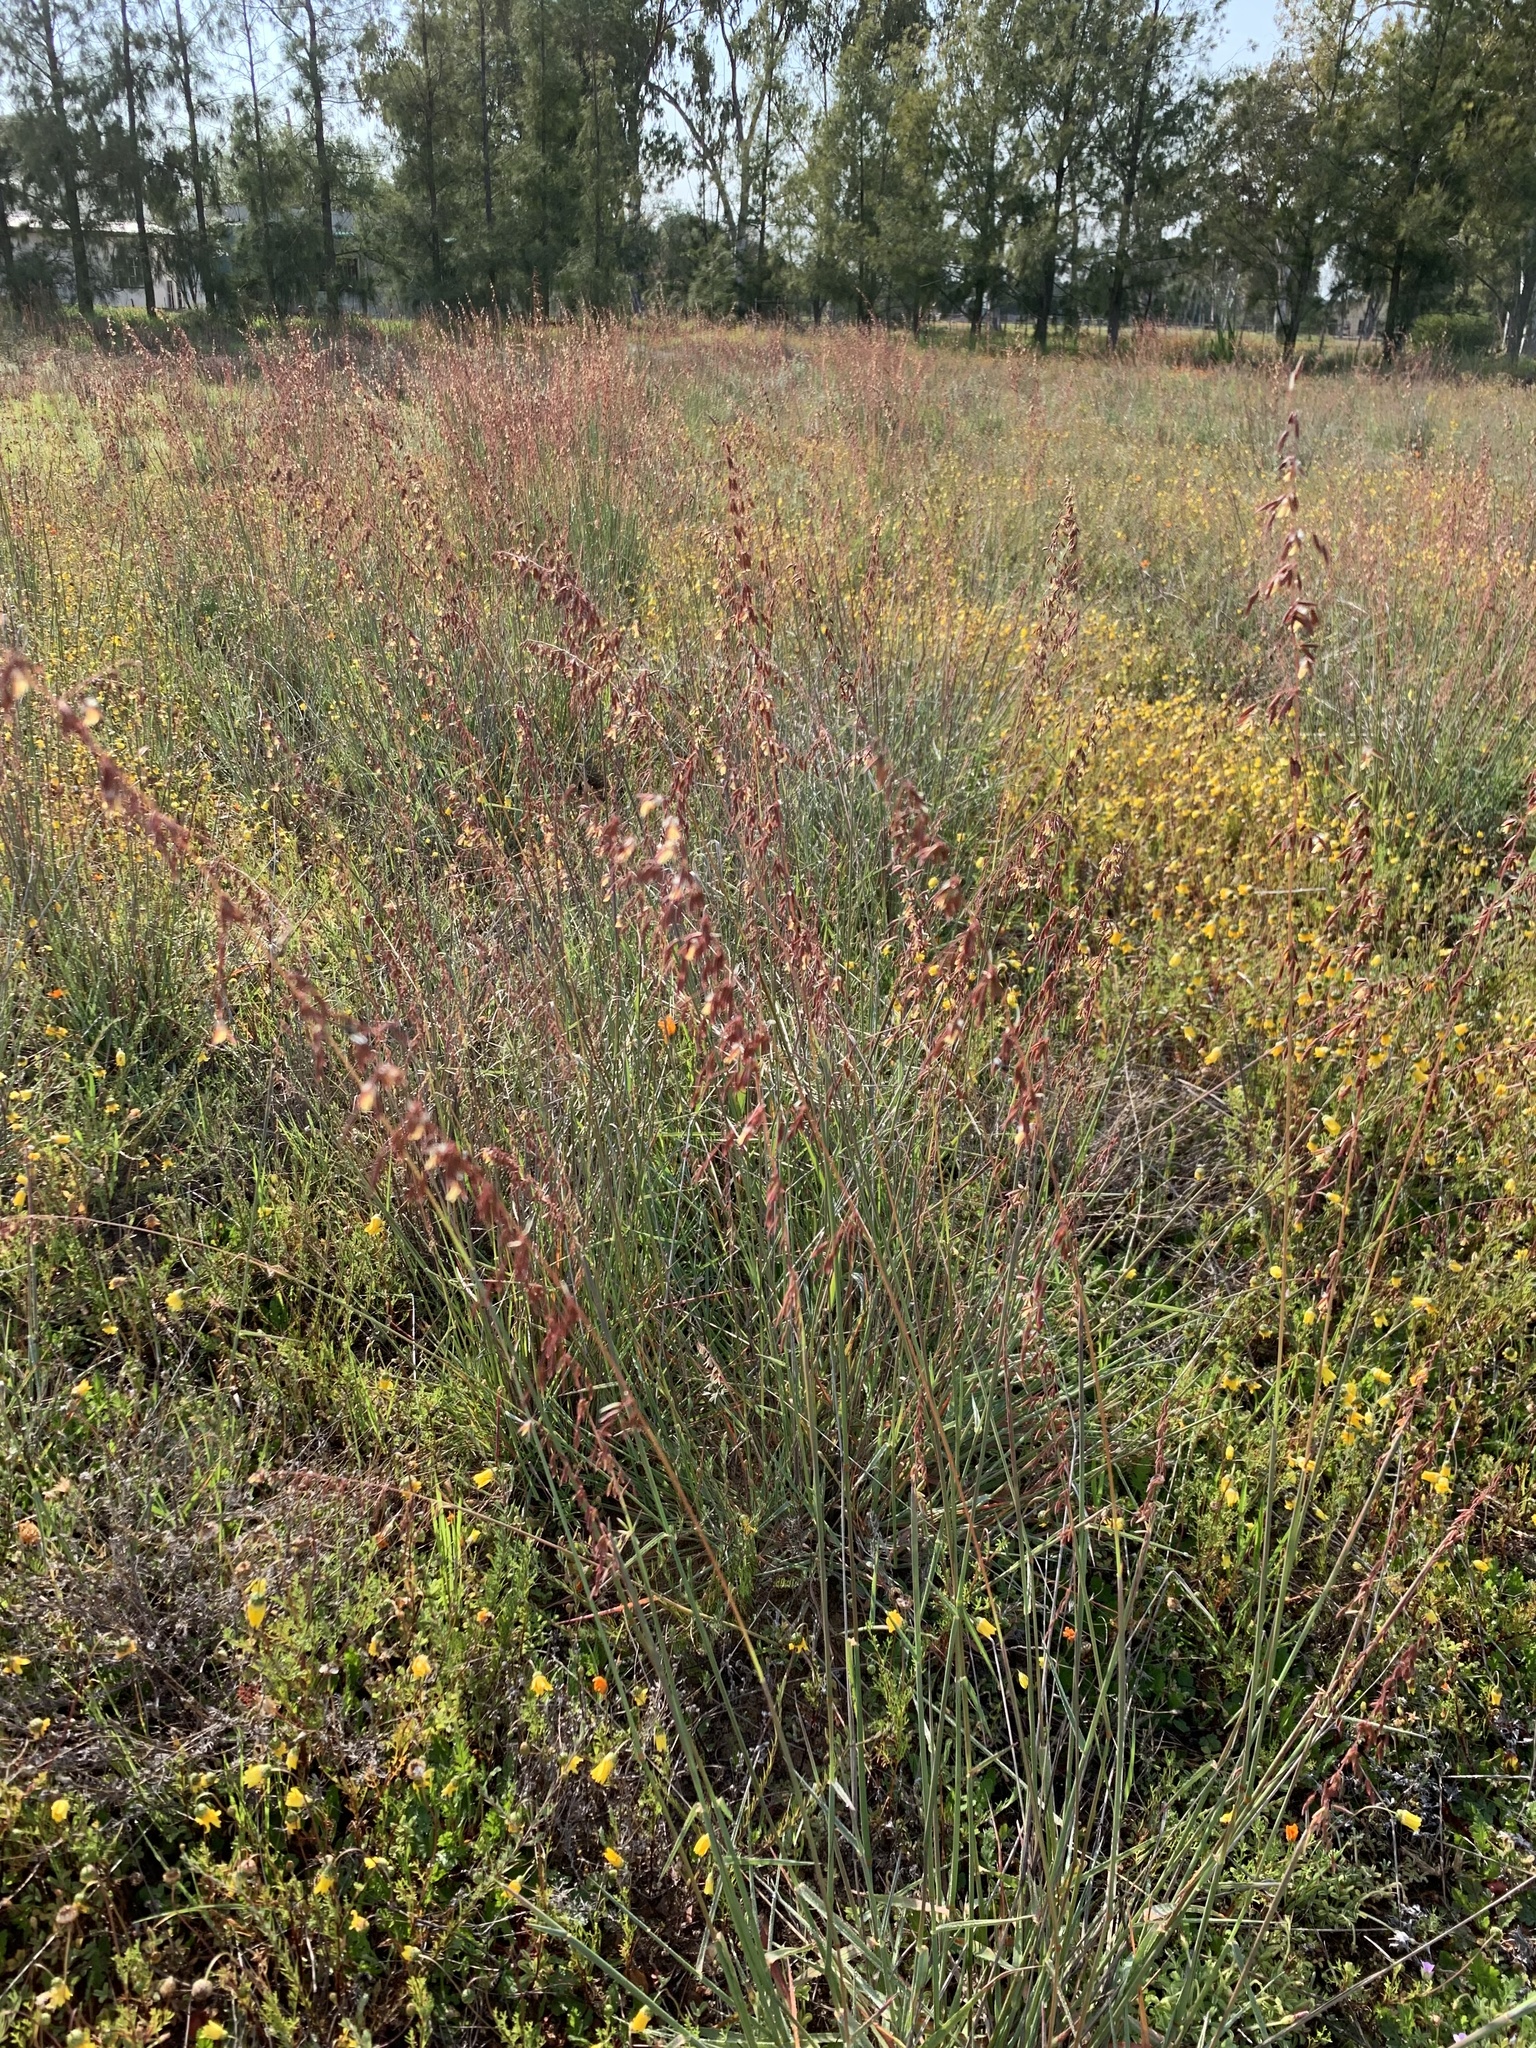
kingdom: Plantae
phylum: Tracheophyta
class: Liliopsida
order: Poales
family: Poaceae
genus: Ehrharta
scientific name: Ehrharta calycina
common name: Perennial veldtgrass
